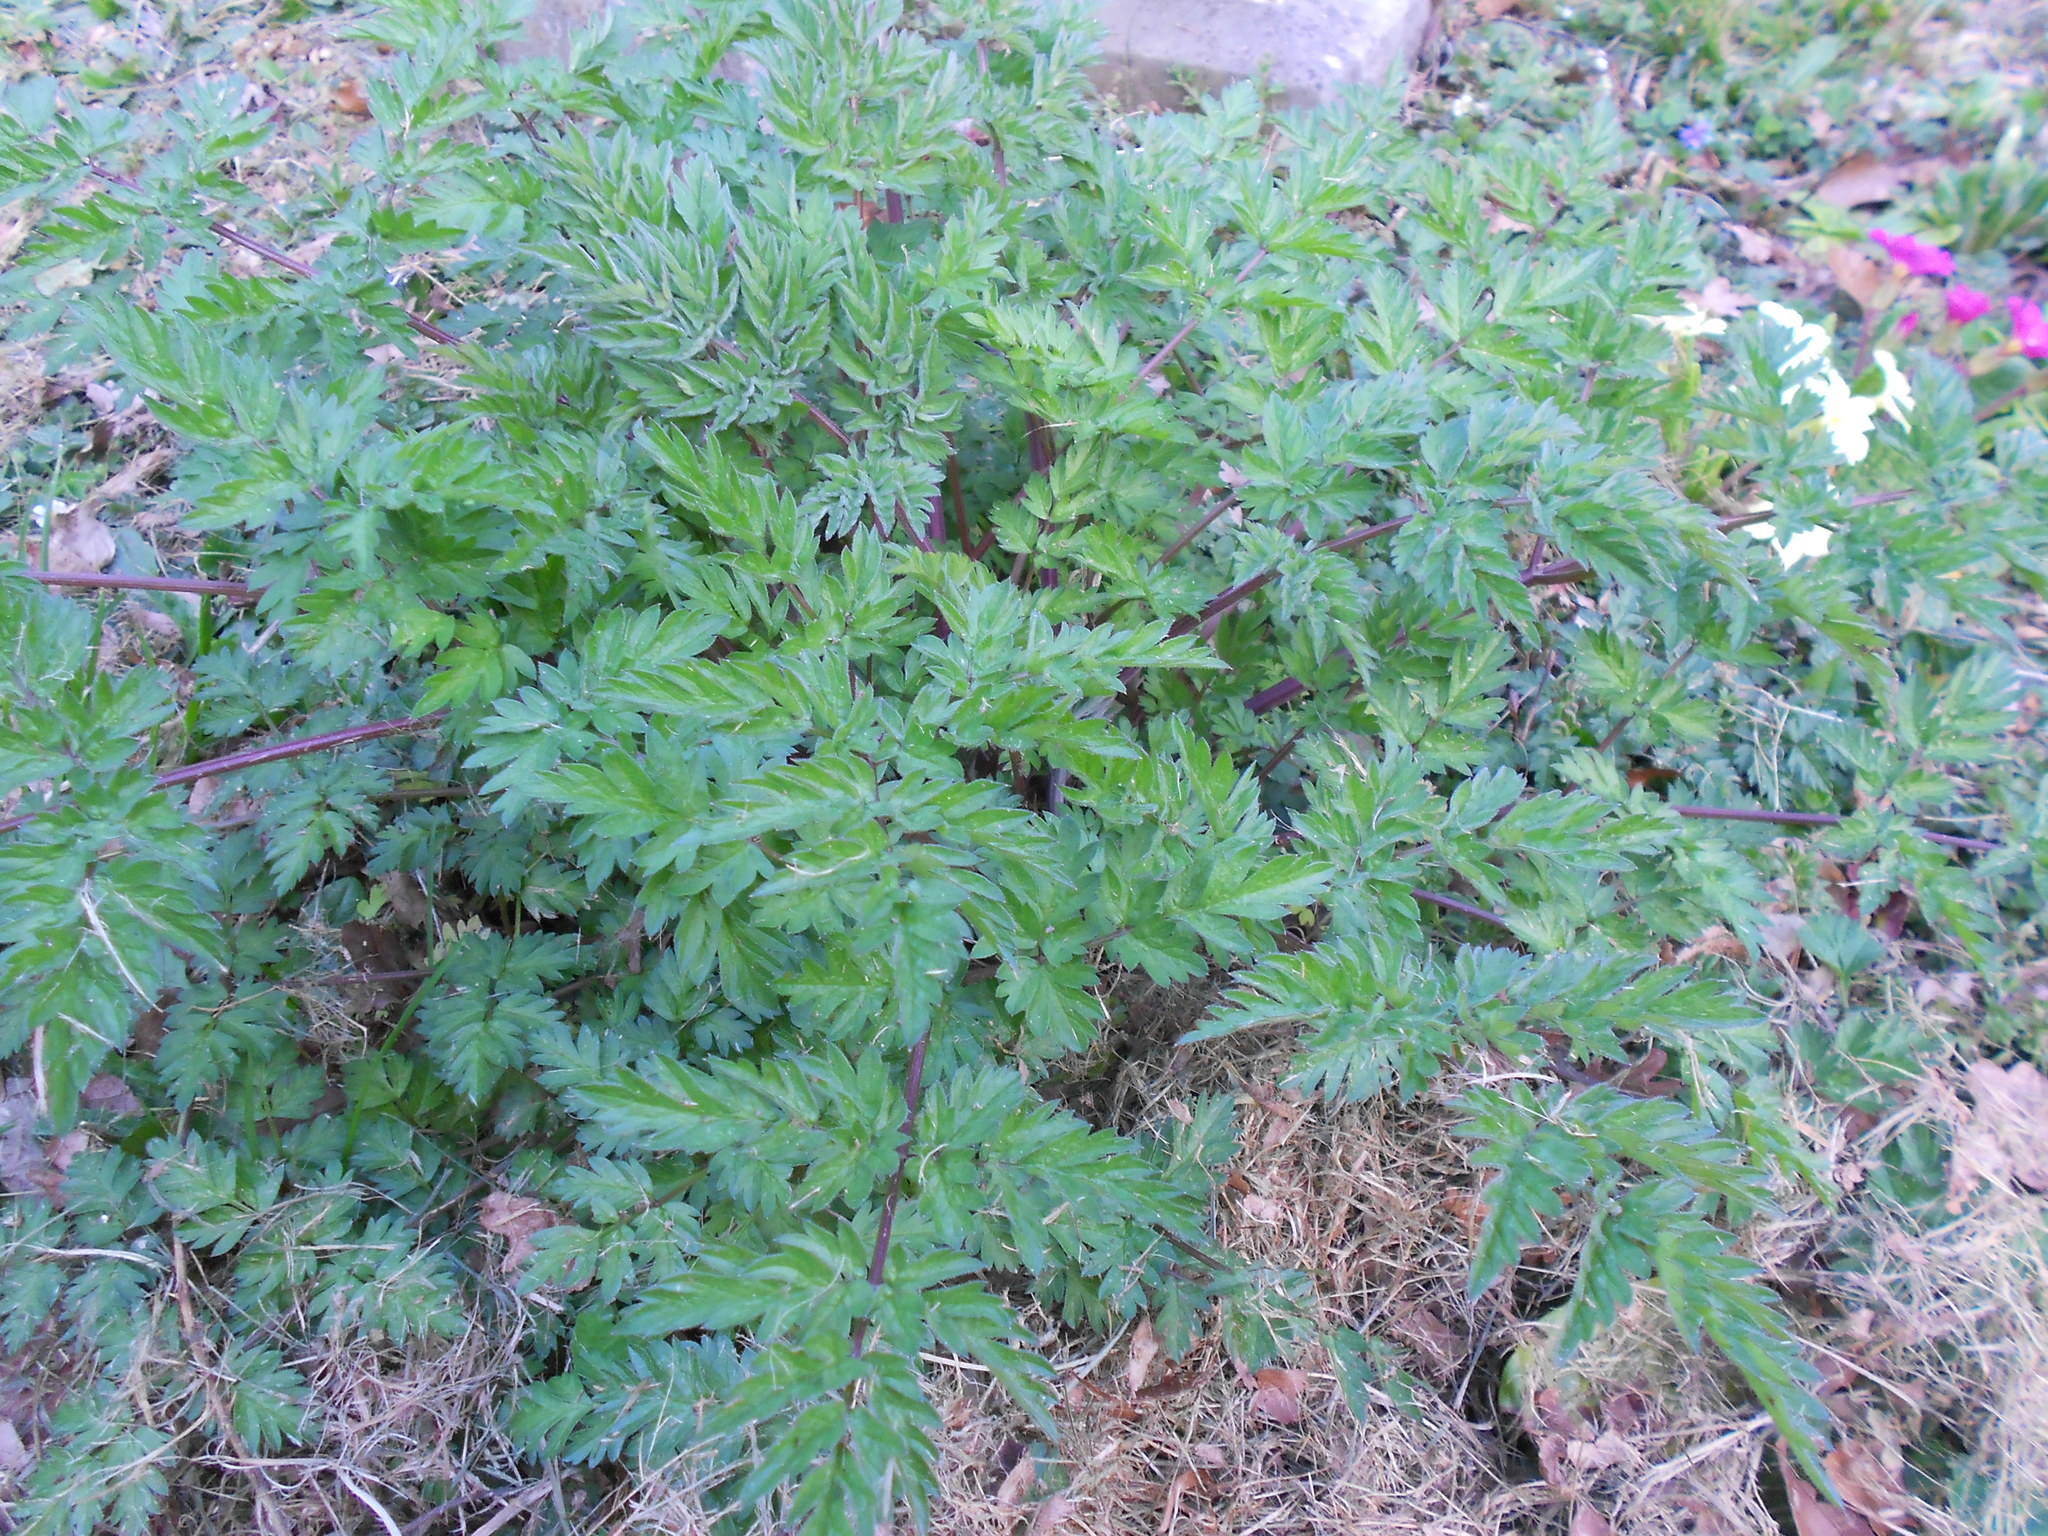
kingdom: Plantae
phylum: Tracheophyta
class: Magnoliopsida
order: Apiales
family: Apiaceae
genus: Anthriscus
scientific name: Anthriscus sylvestris
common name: Cow parsley
